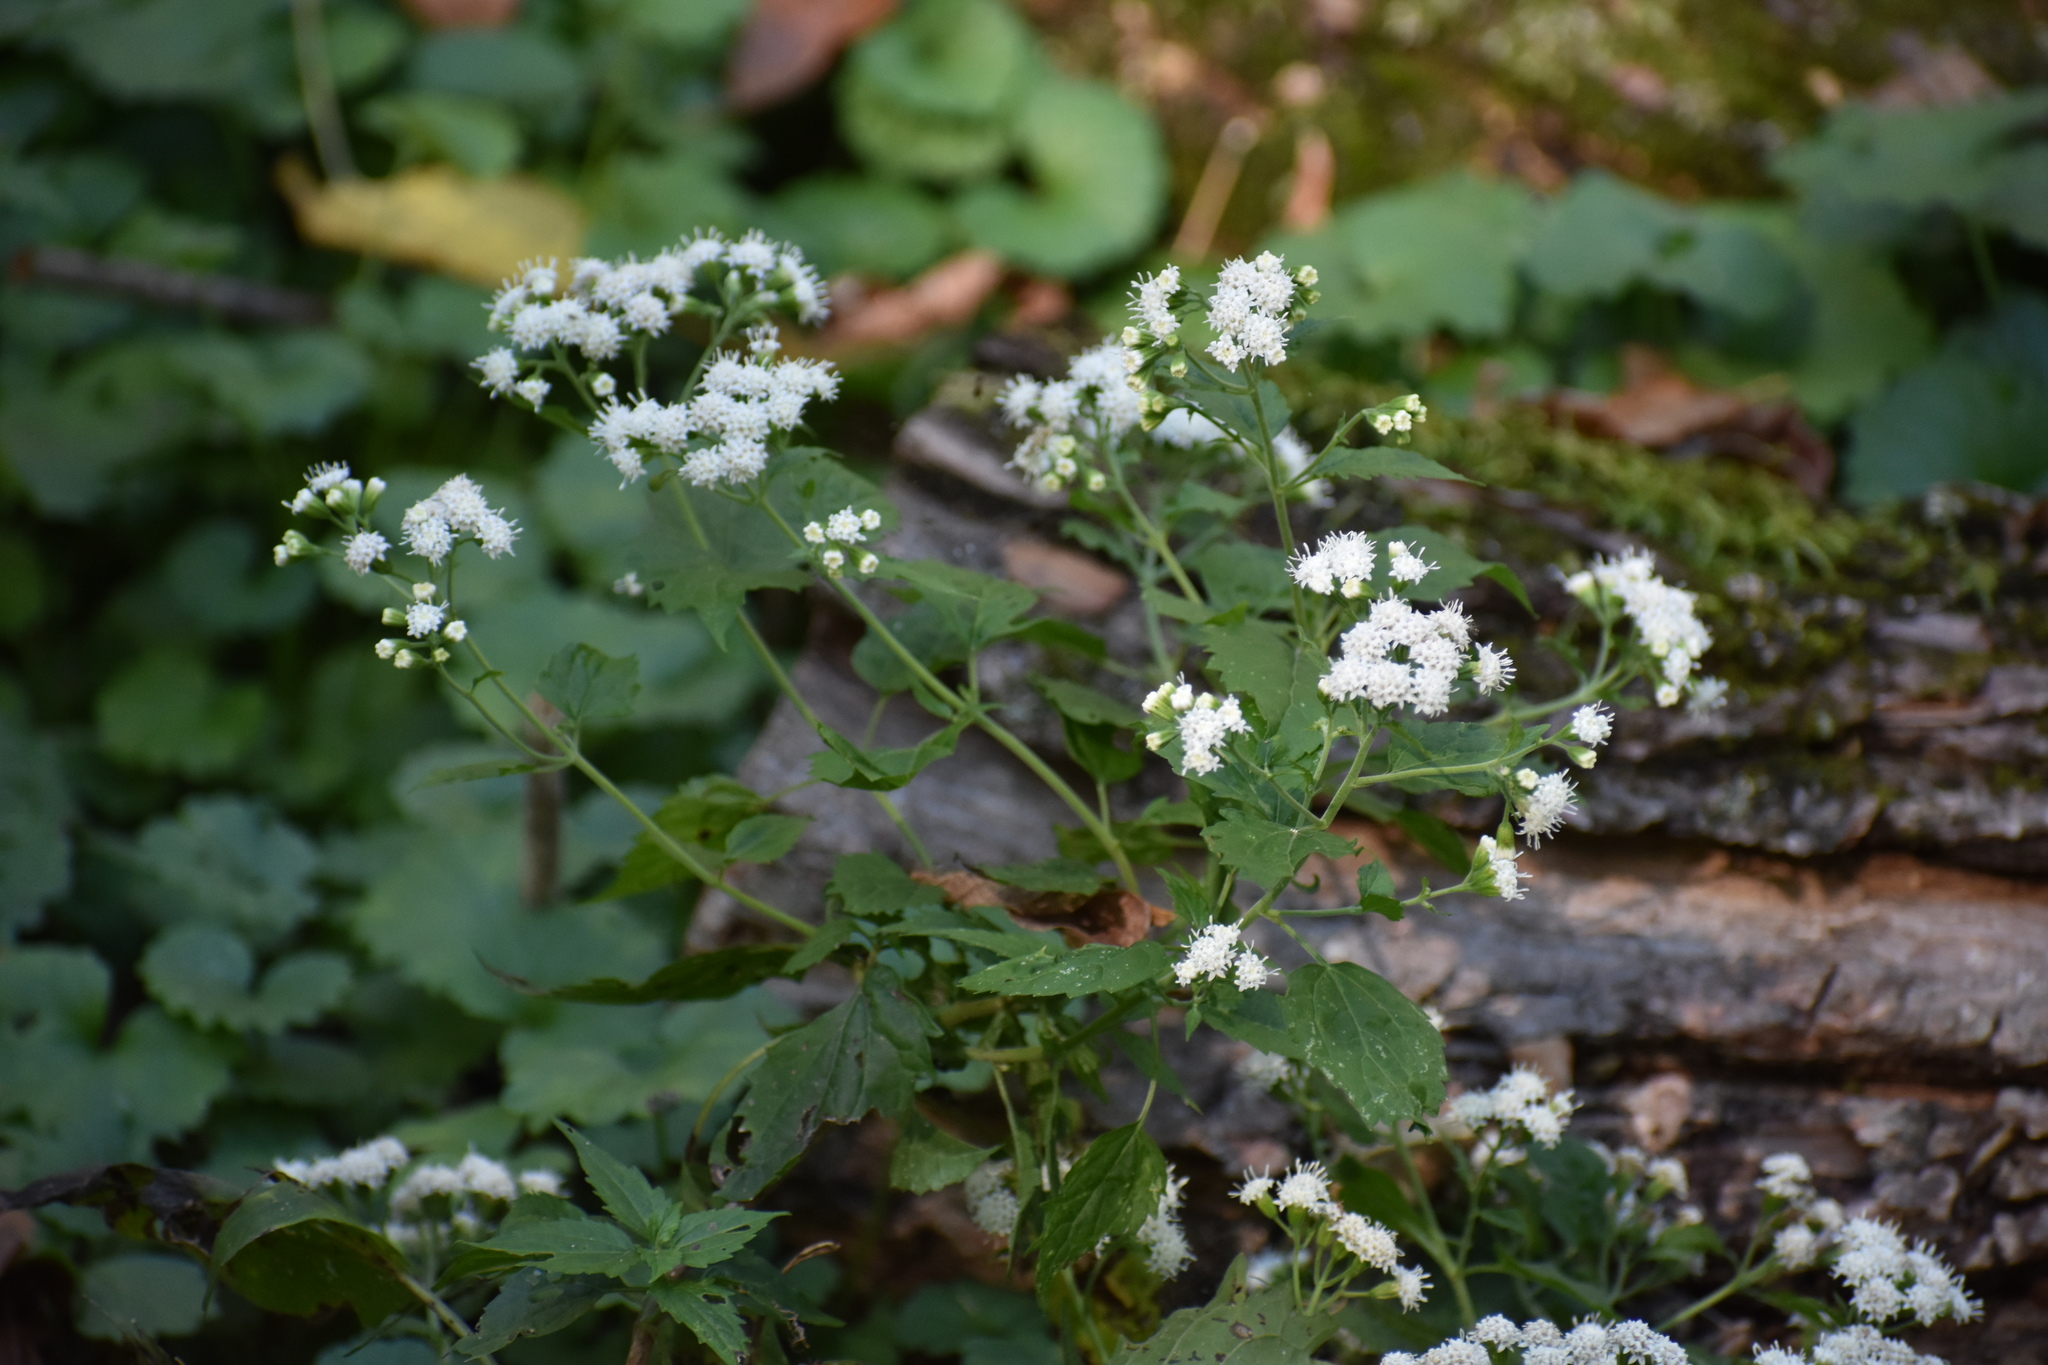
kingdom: Plantae
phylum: Tracheophyta
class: Magnoliopsida
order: Asterales
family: Asteraceae
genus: Ageratina
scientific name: Ageratina altissima
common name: White snakeroot
